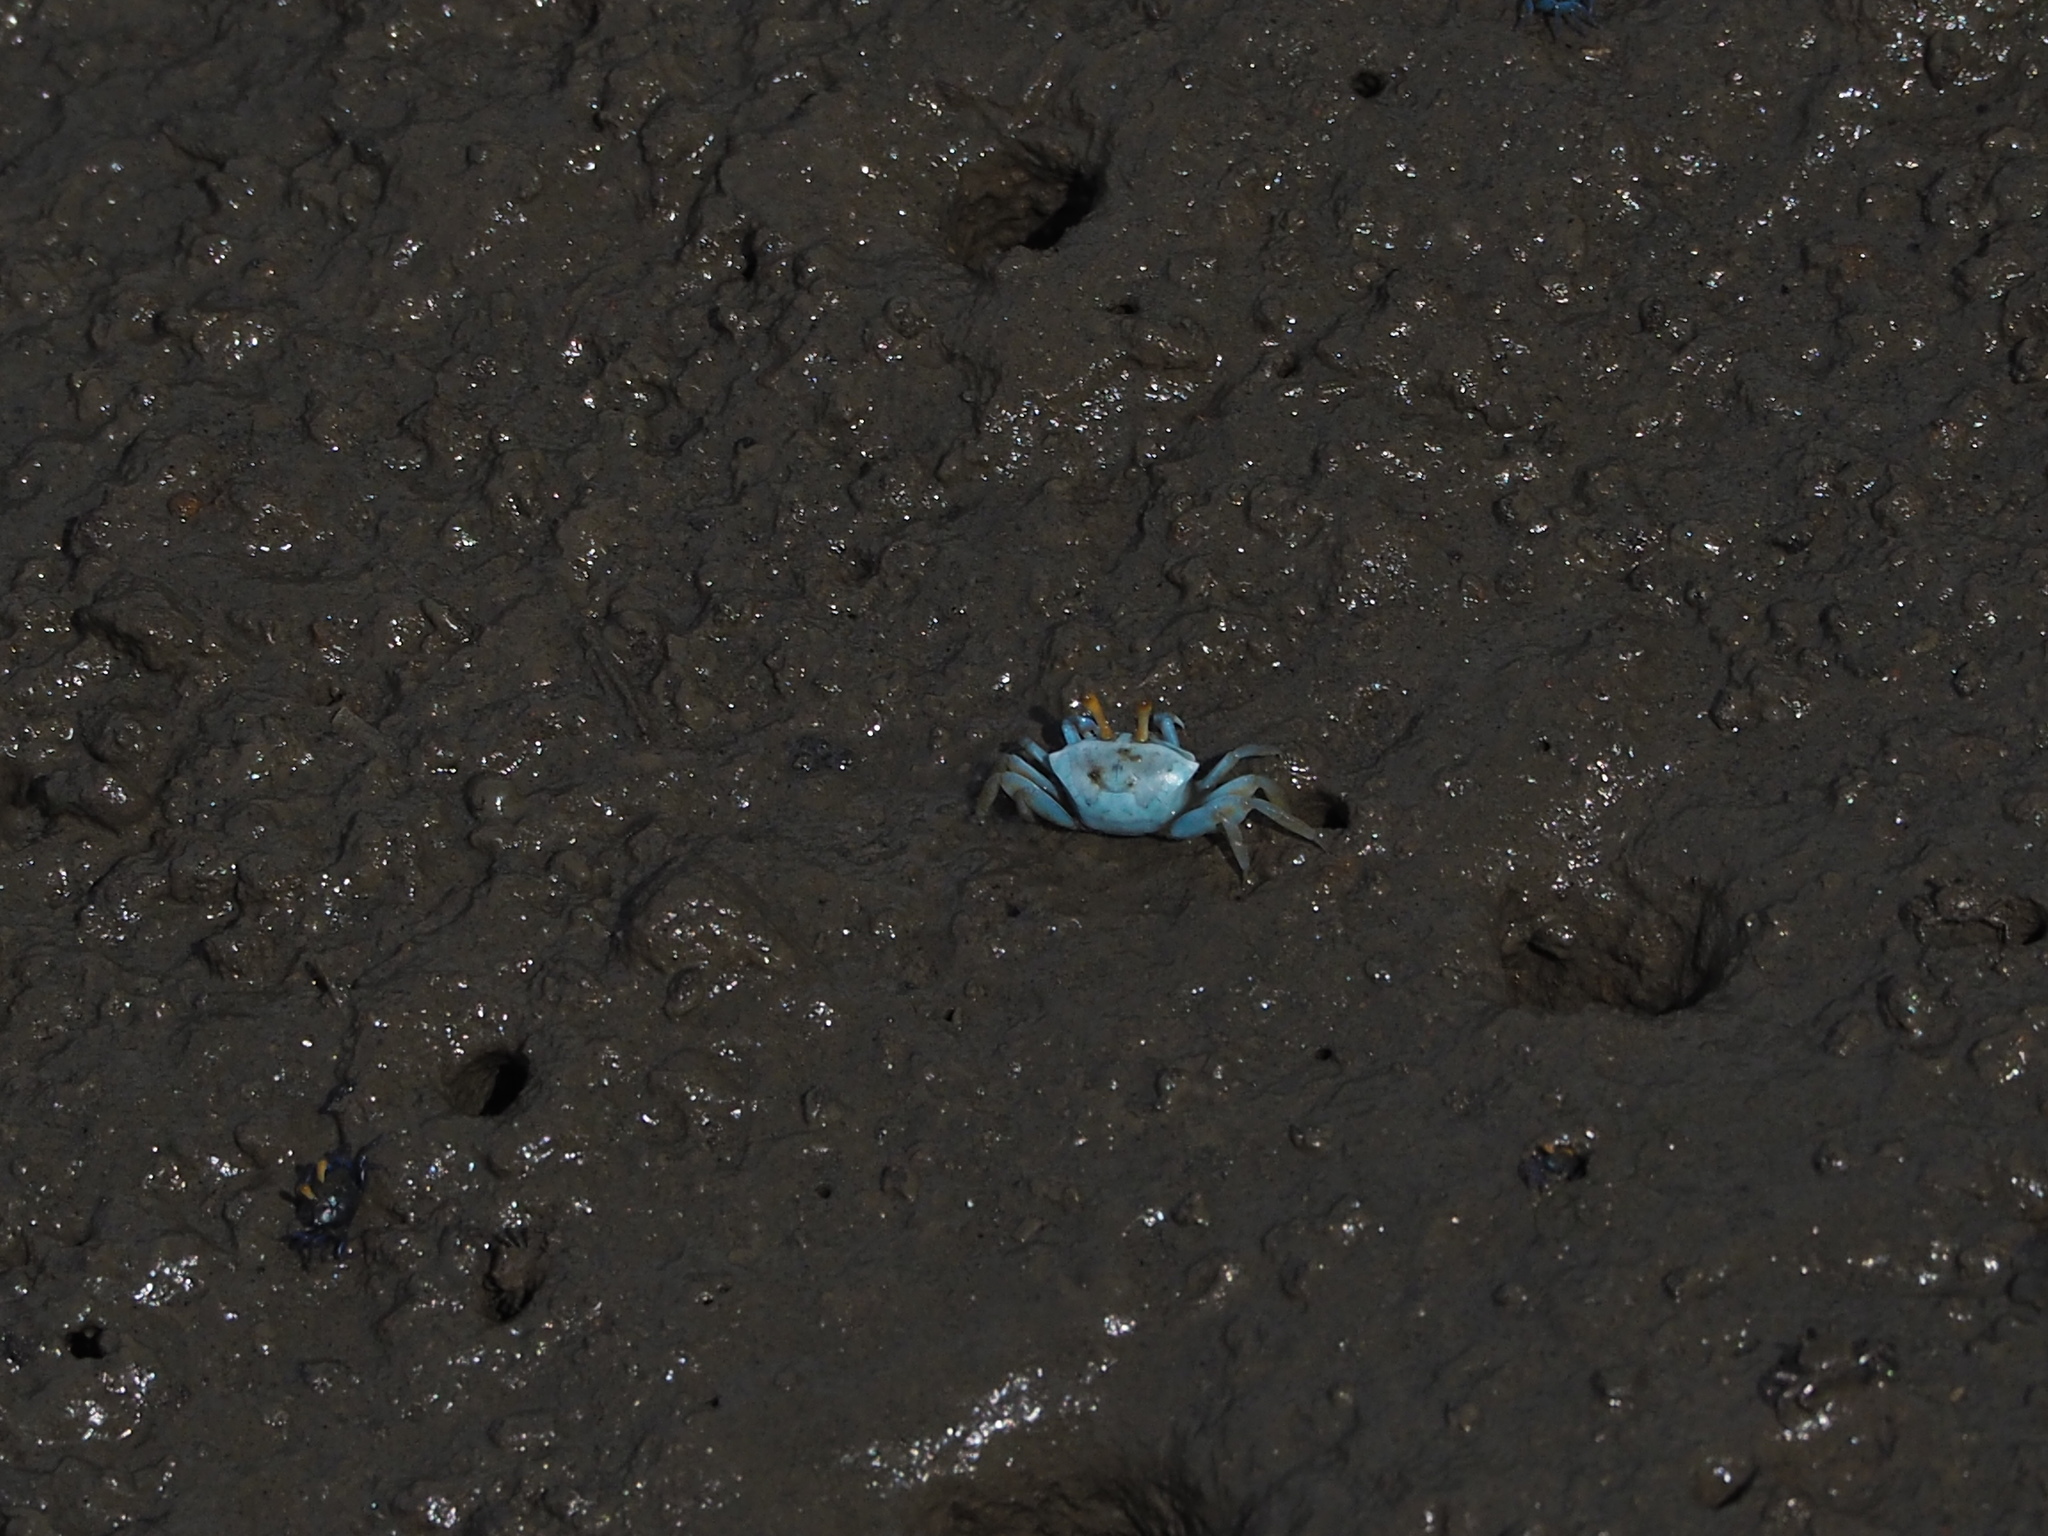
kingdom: Animalia
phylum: Arthropoda
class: Malacostraca
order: Decapoda
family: Ocypodidae
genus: Tubuca
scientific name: Tubuca arcuata
